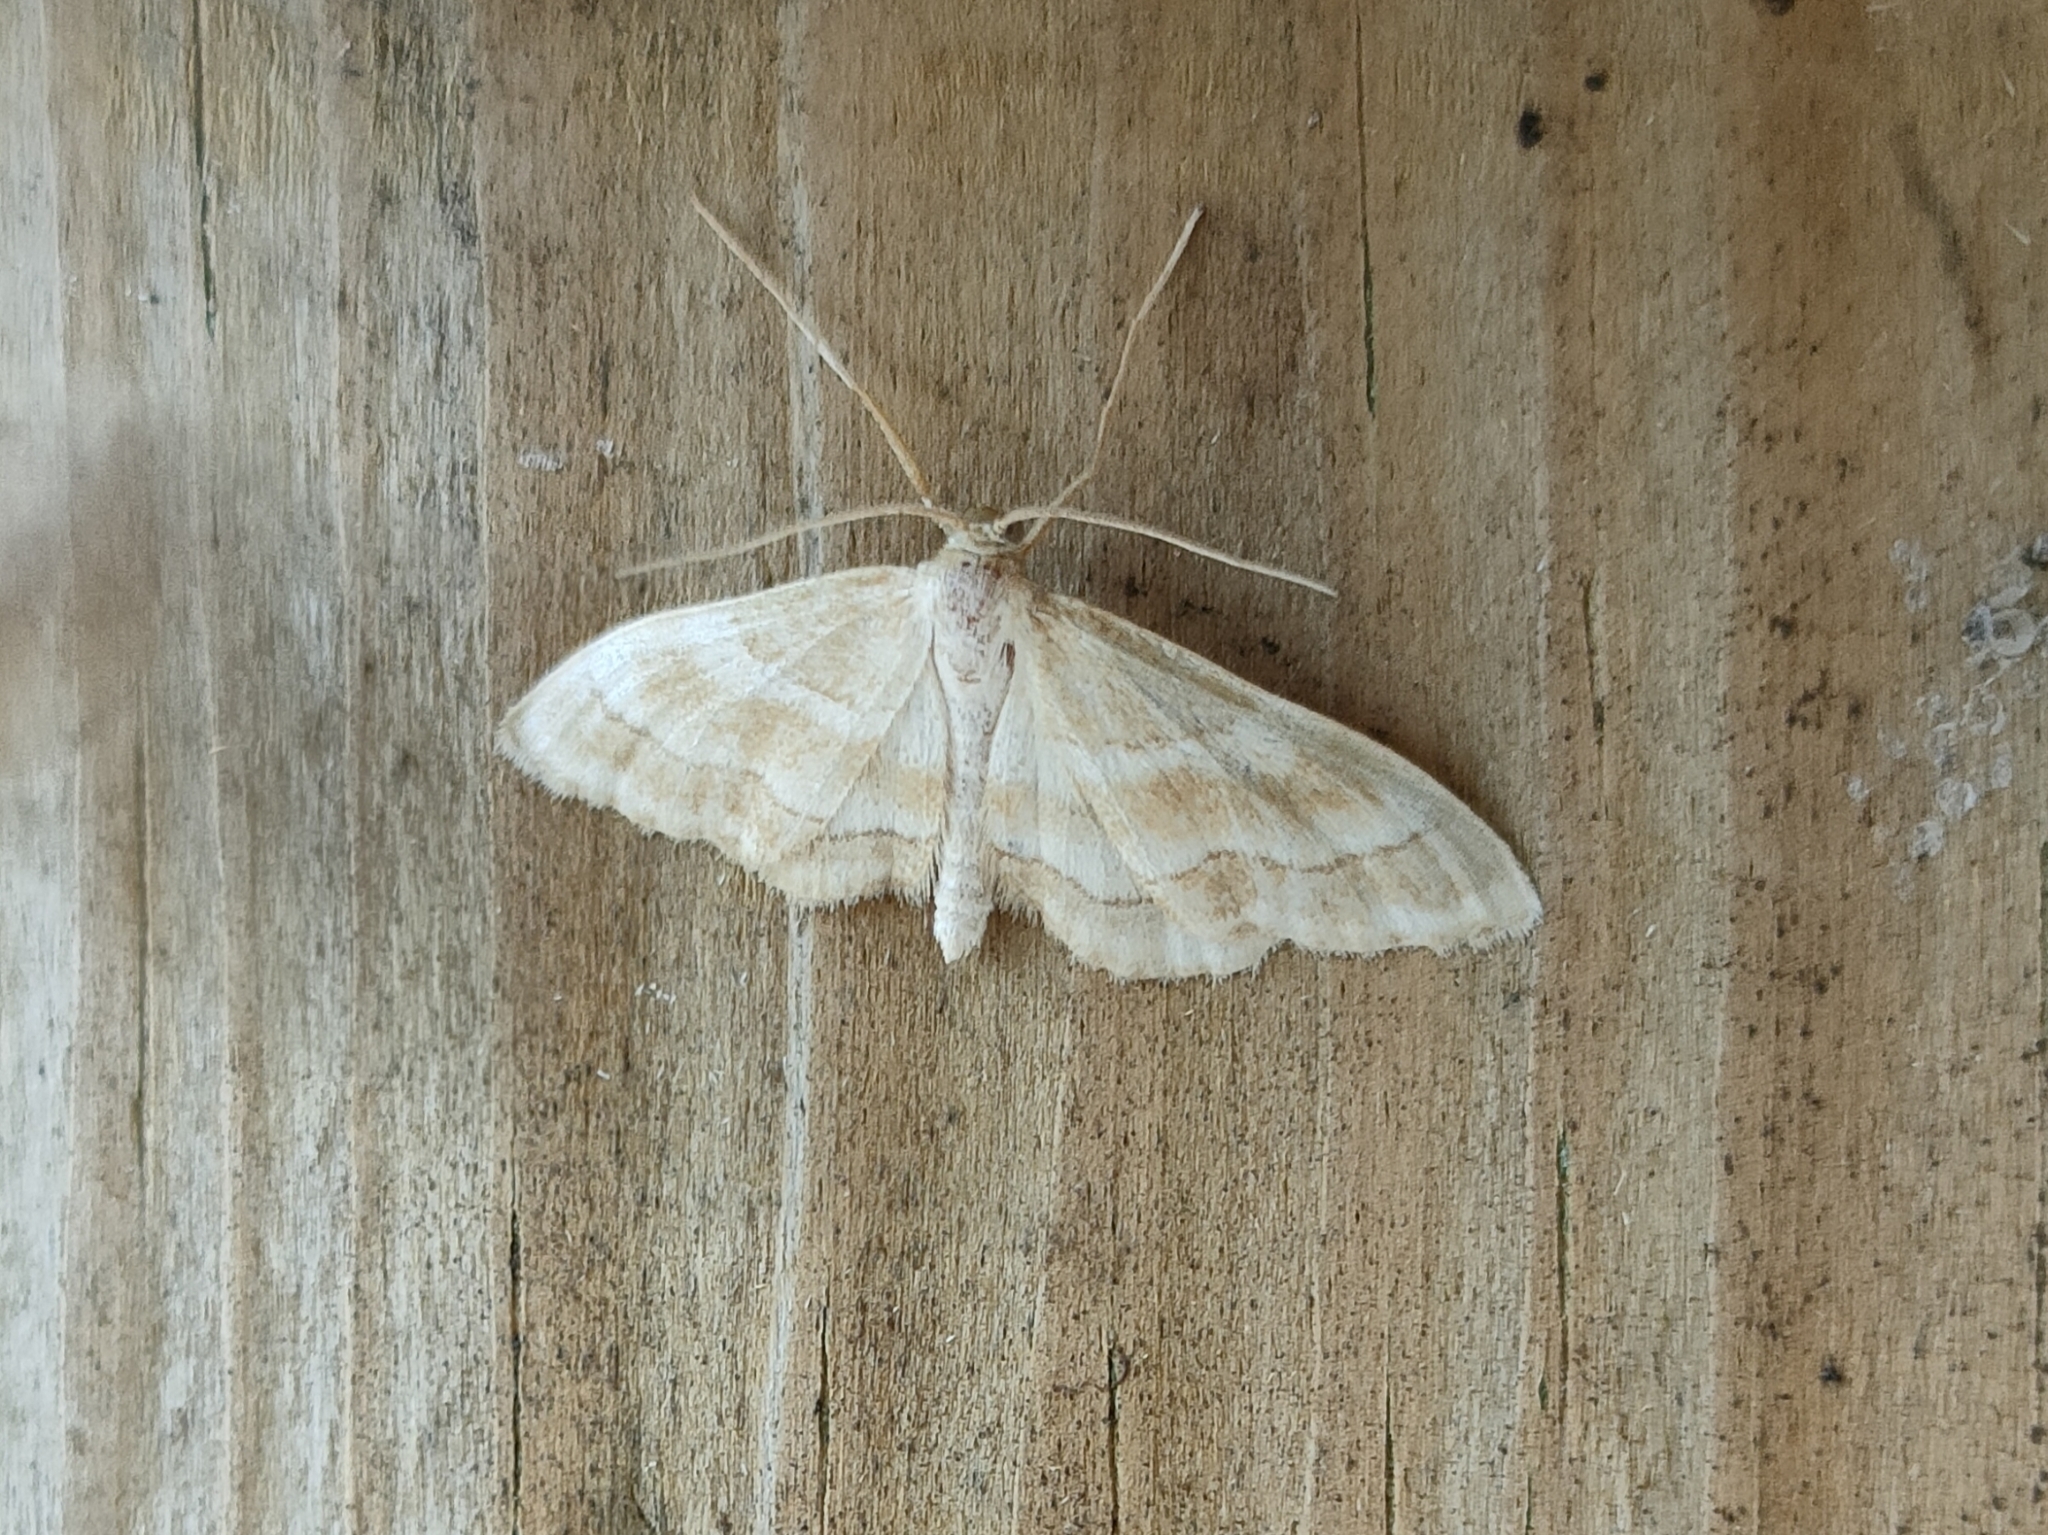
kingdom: Animalia
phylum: Arthropoda
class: Insecta
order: Lepidoptera
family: Geometridae
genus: Idaea
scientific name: Idaea circuitaria
